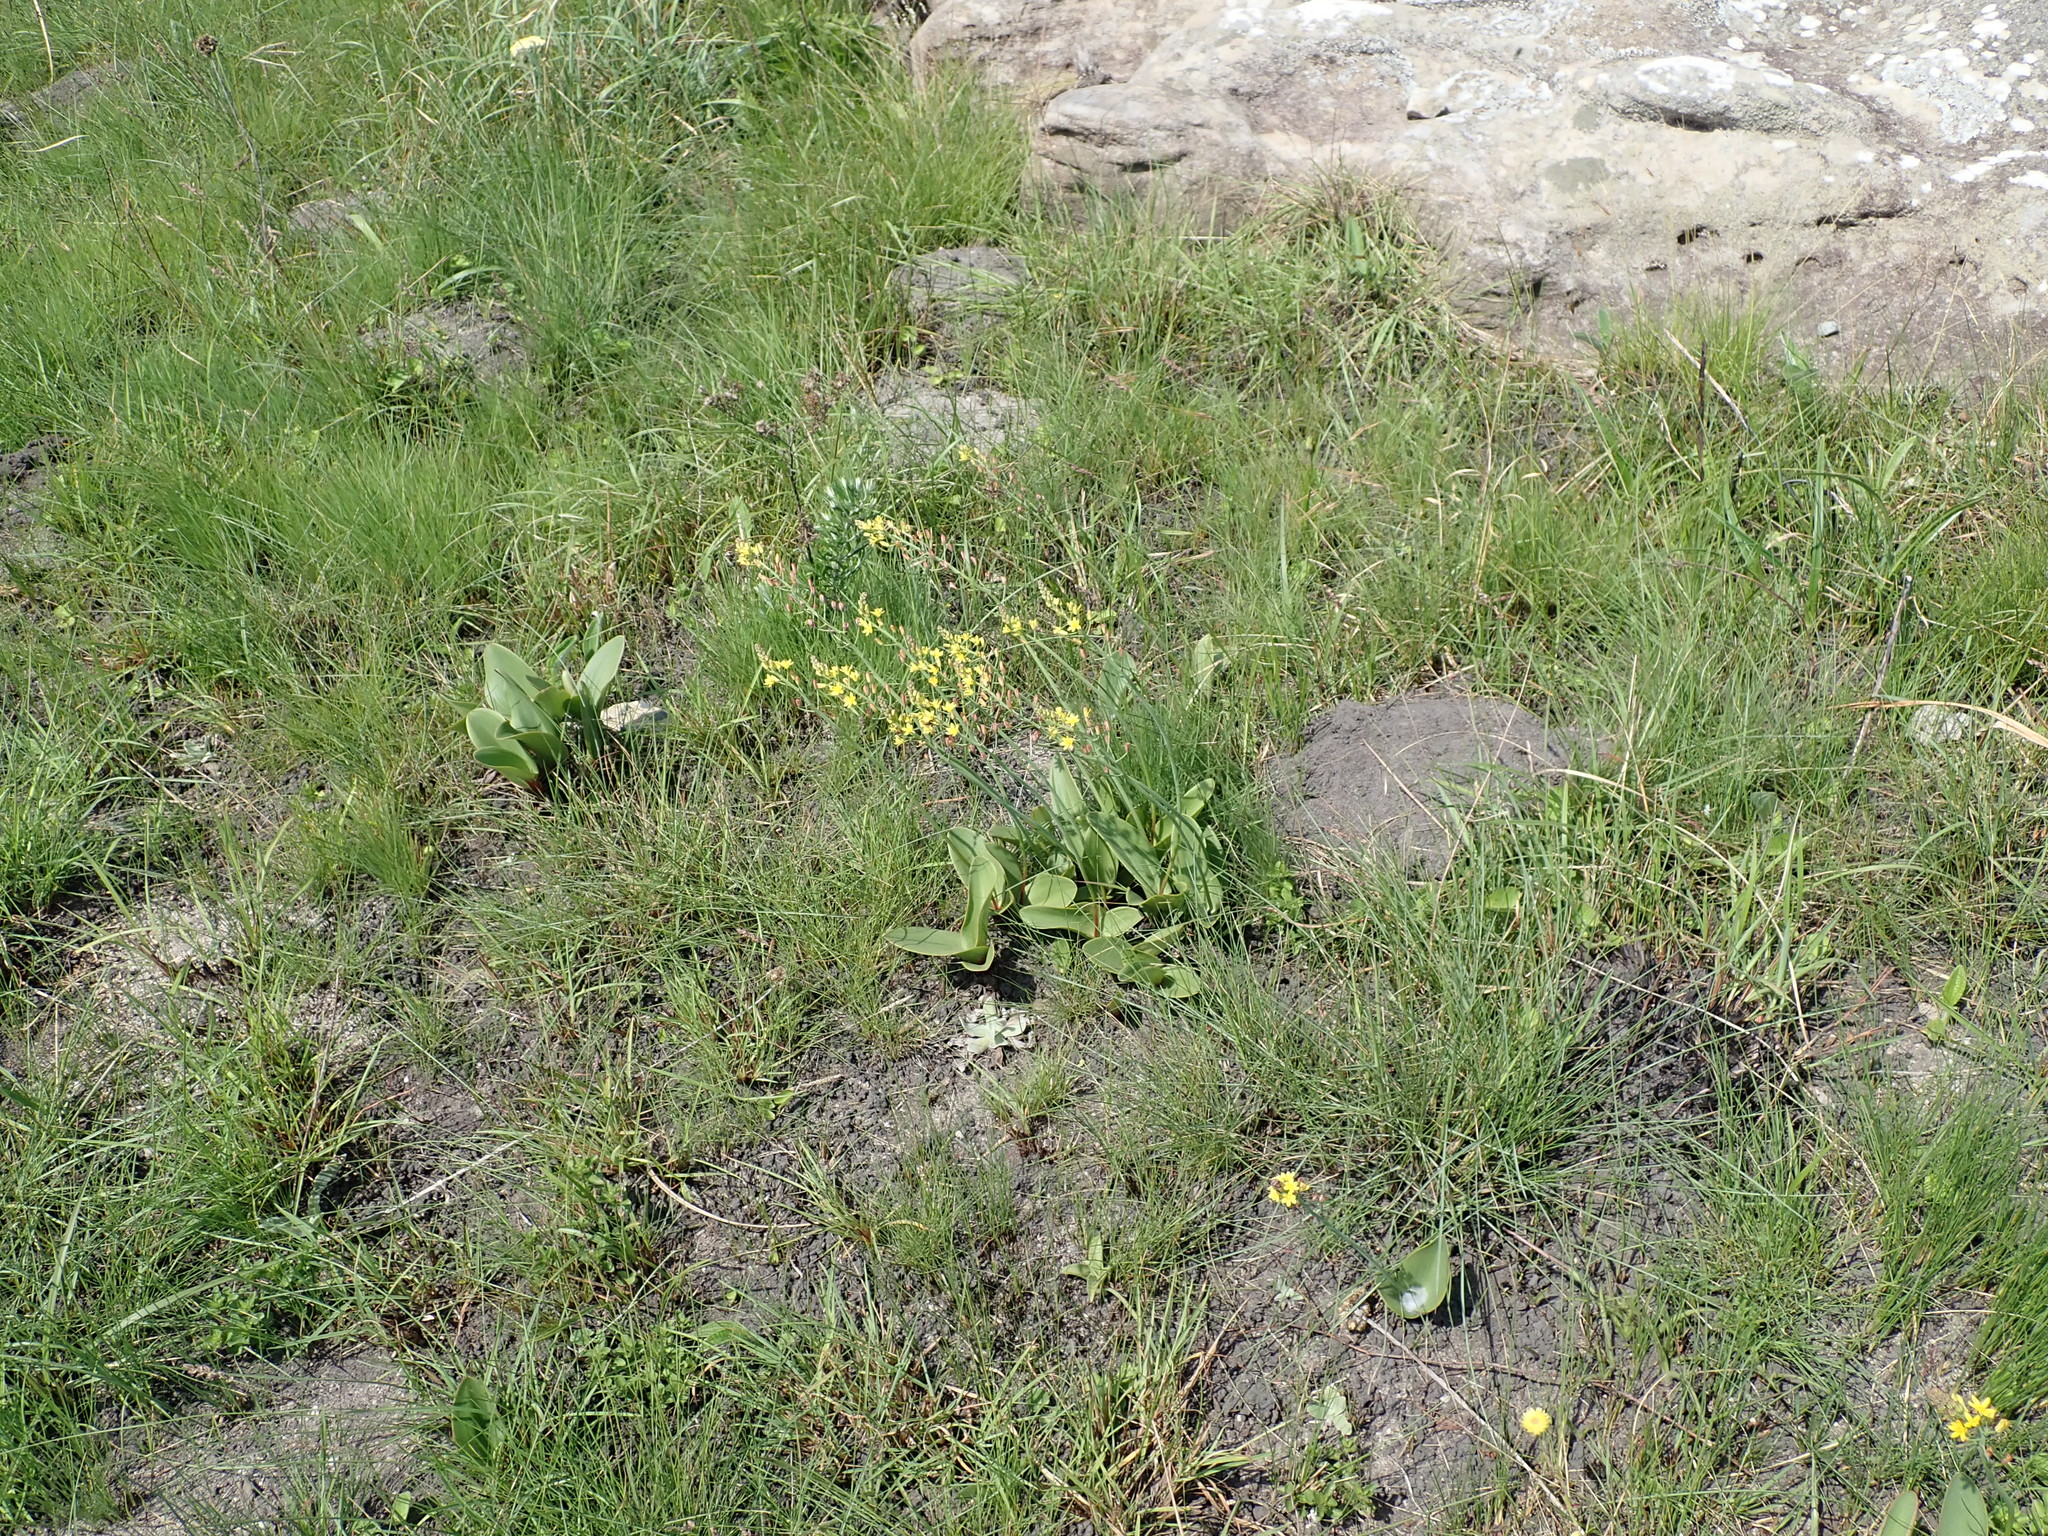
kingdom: Plantae
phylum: Tracheophyta
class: Liliopsida
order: Asparagales
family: Asparagaceae
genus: Eriospermum
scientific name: Eriospermum mackenii
